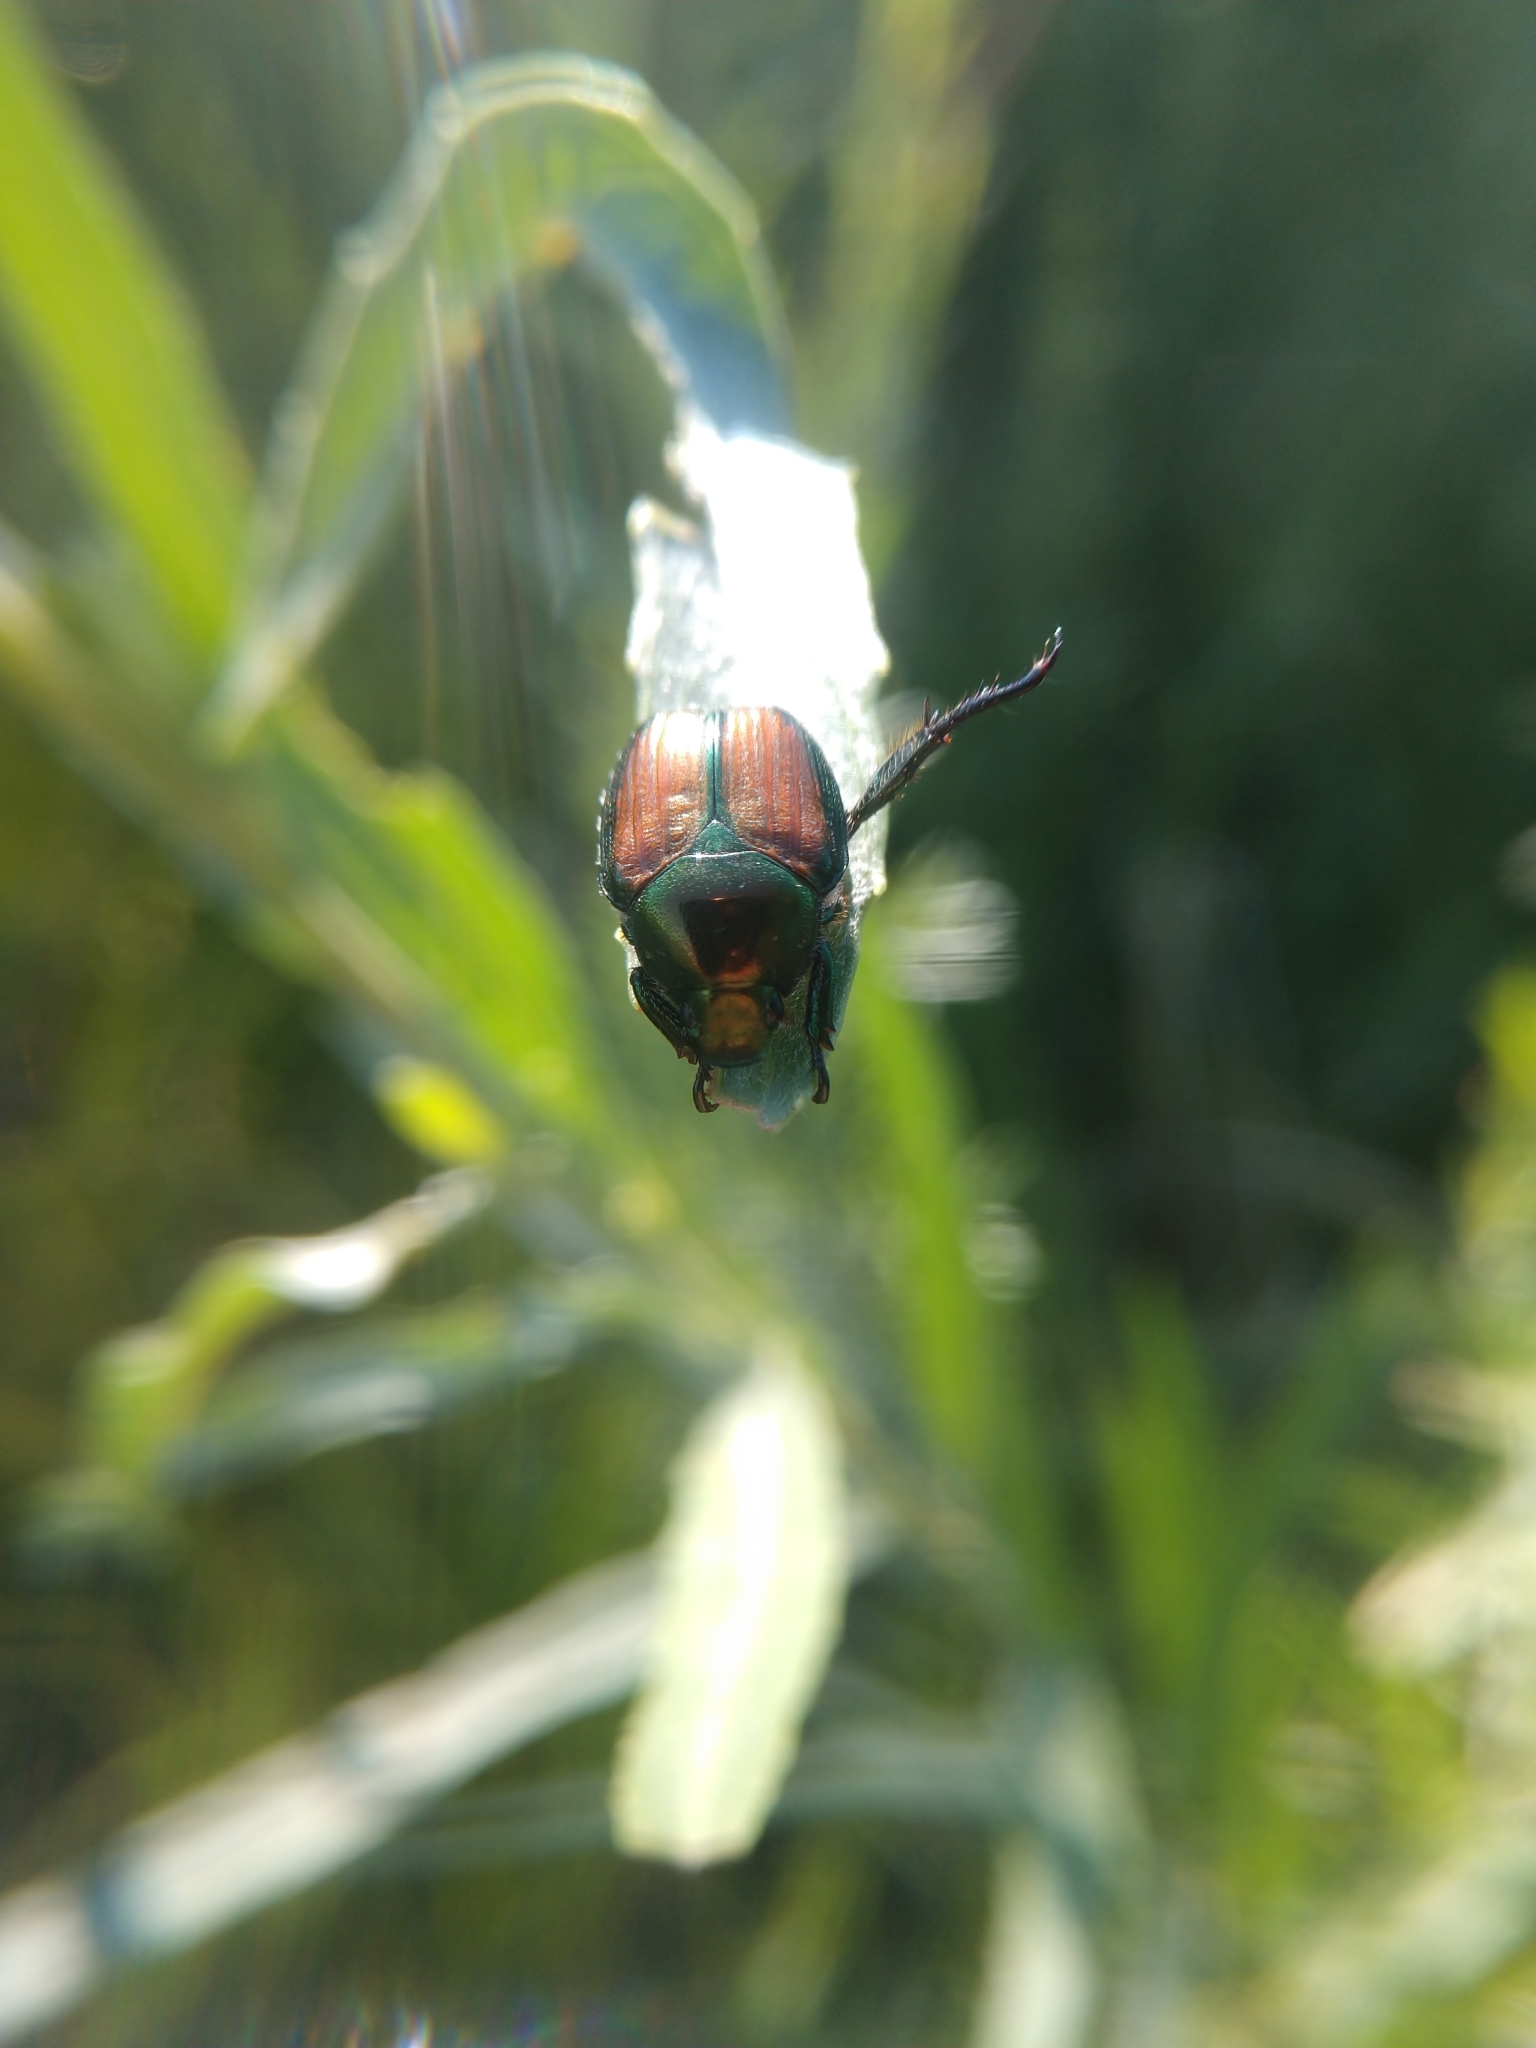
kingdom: Animalia
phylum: Arthropoda
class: Insecta
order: Coleoptera
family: Scarabaeidae
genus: Popillia
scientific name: Popillia japonica
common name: Japanese beetle
